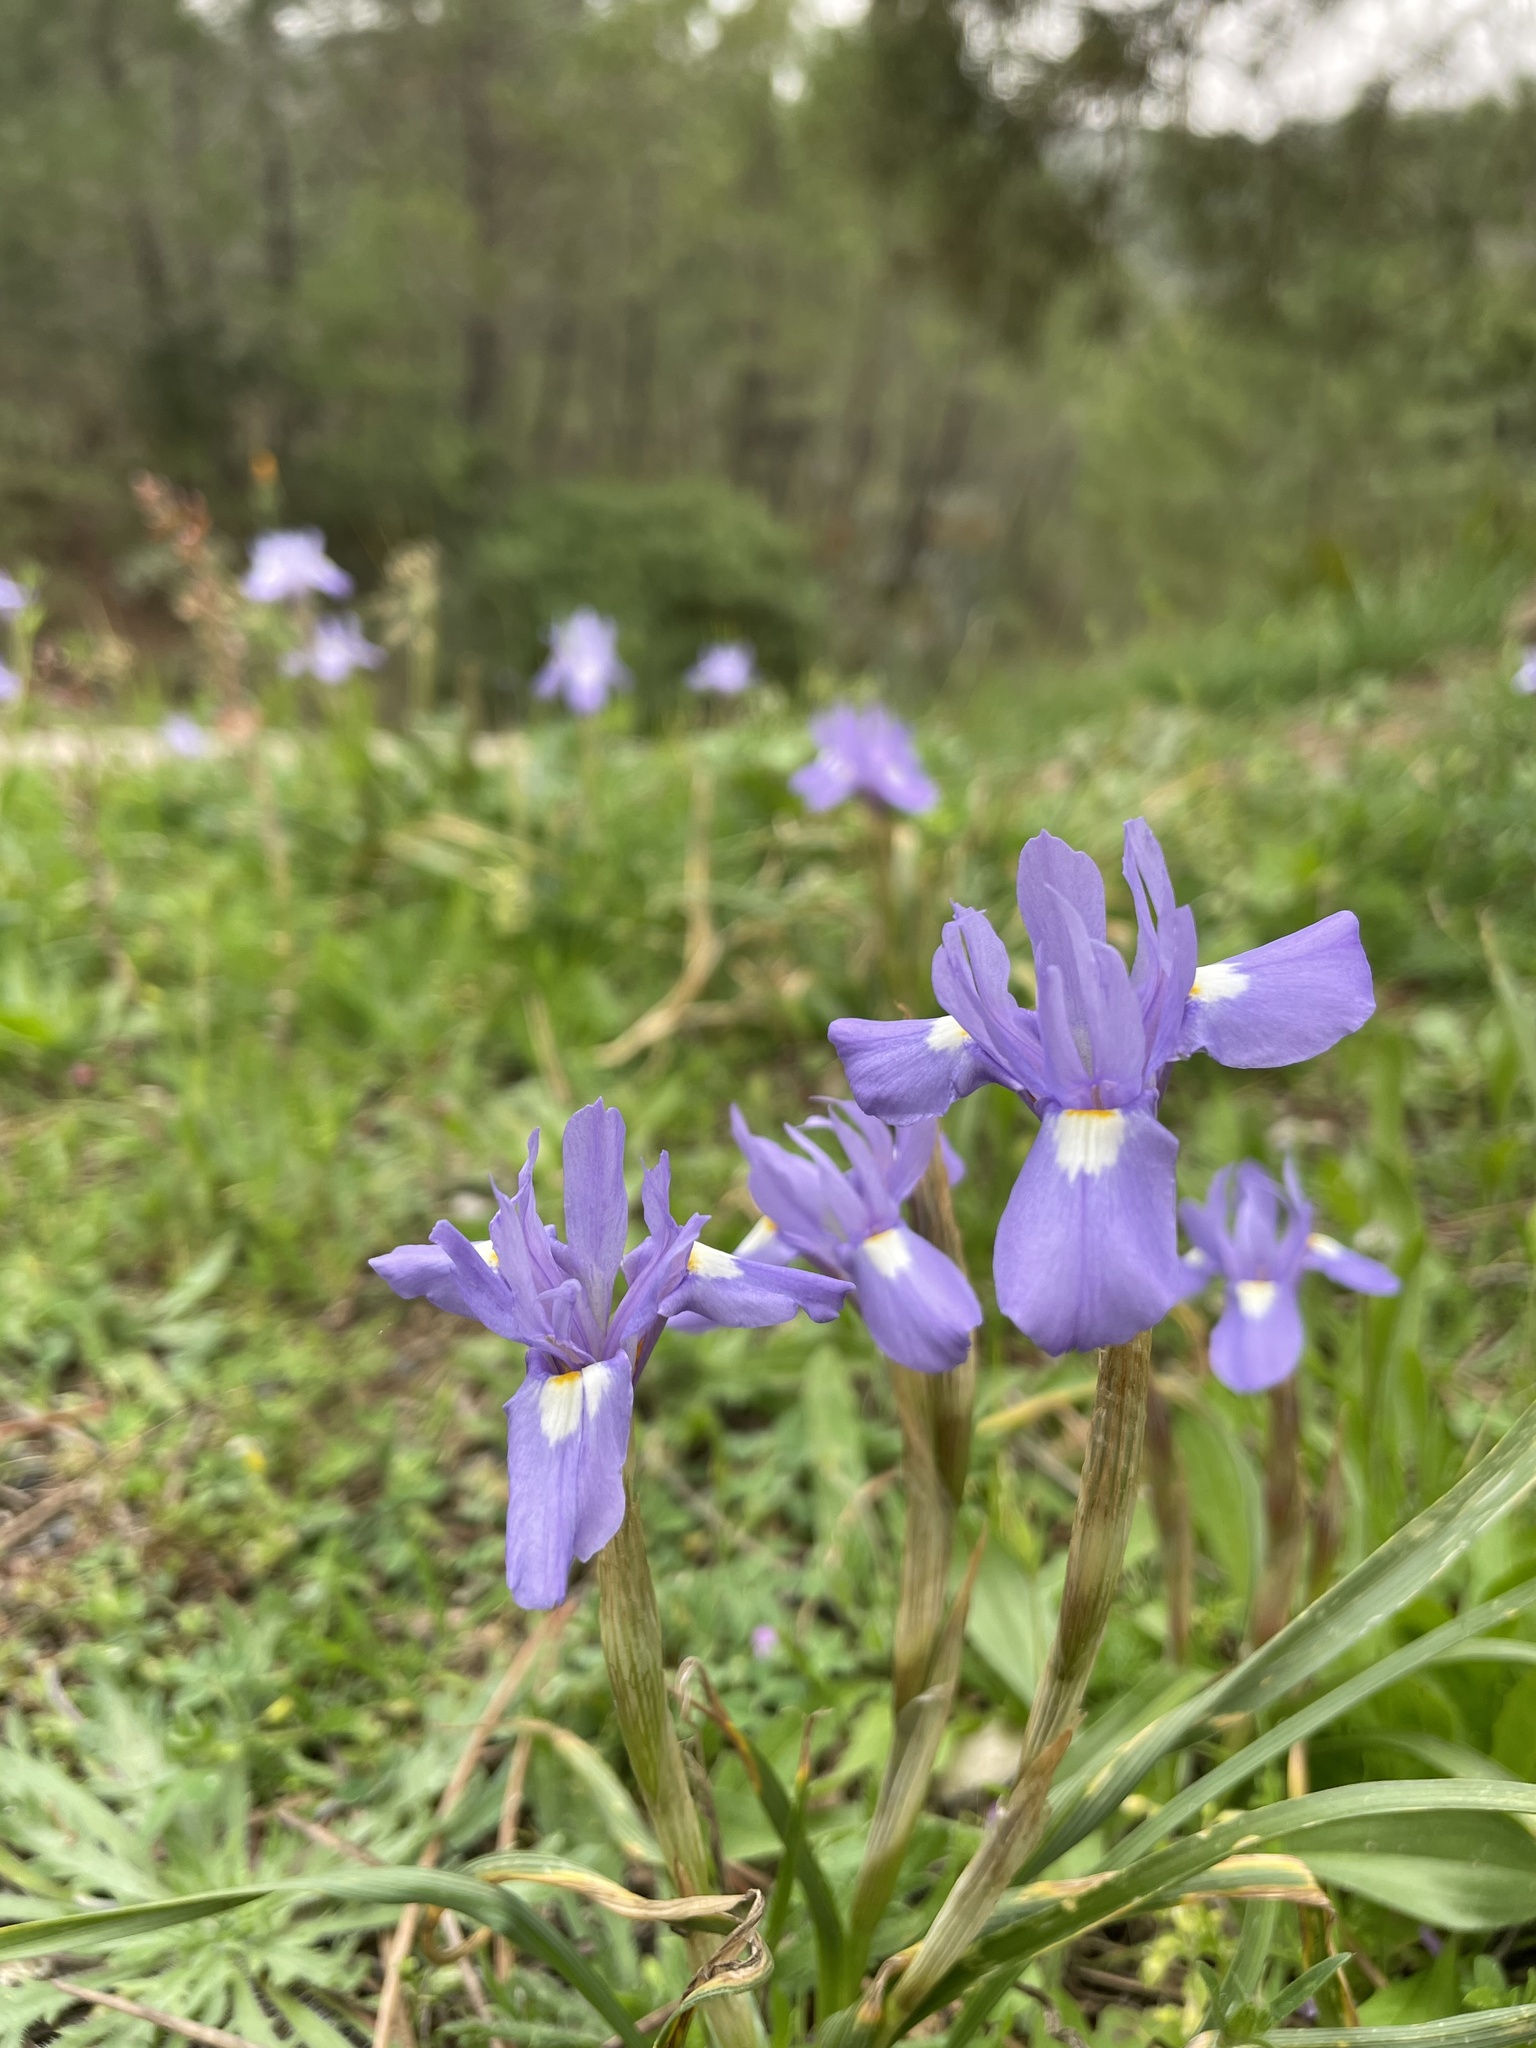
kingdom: Plantae
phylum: Tracheophyta
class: Liliopsida
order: Asparagales
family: Iridaceae
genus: Moraea
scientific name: Moraea sisyrinchium
